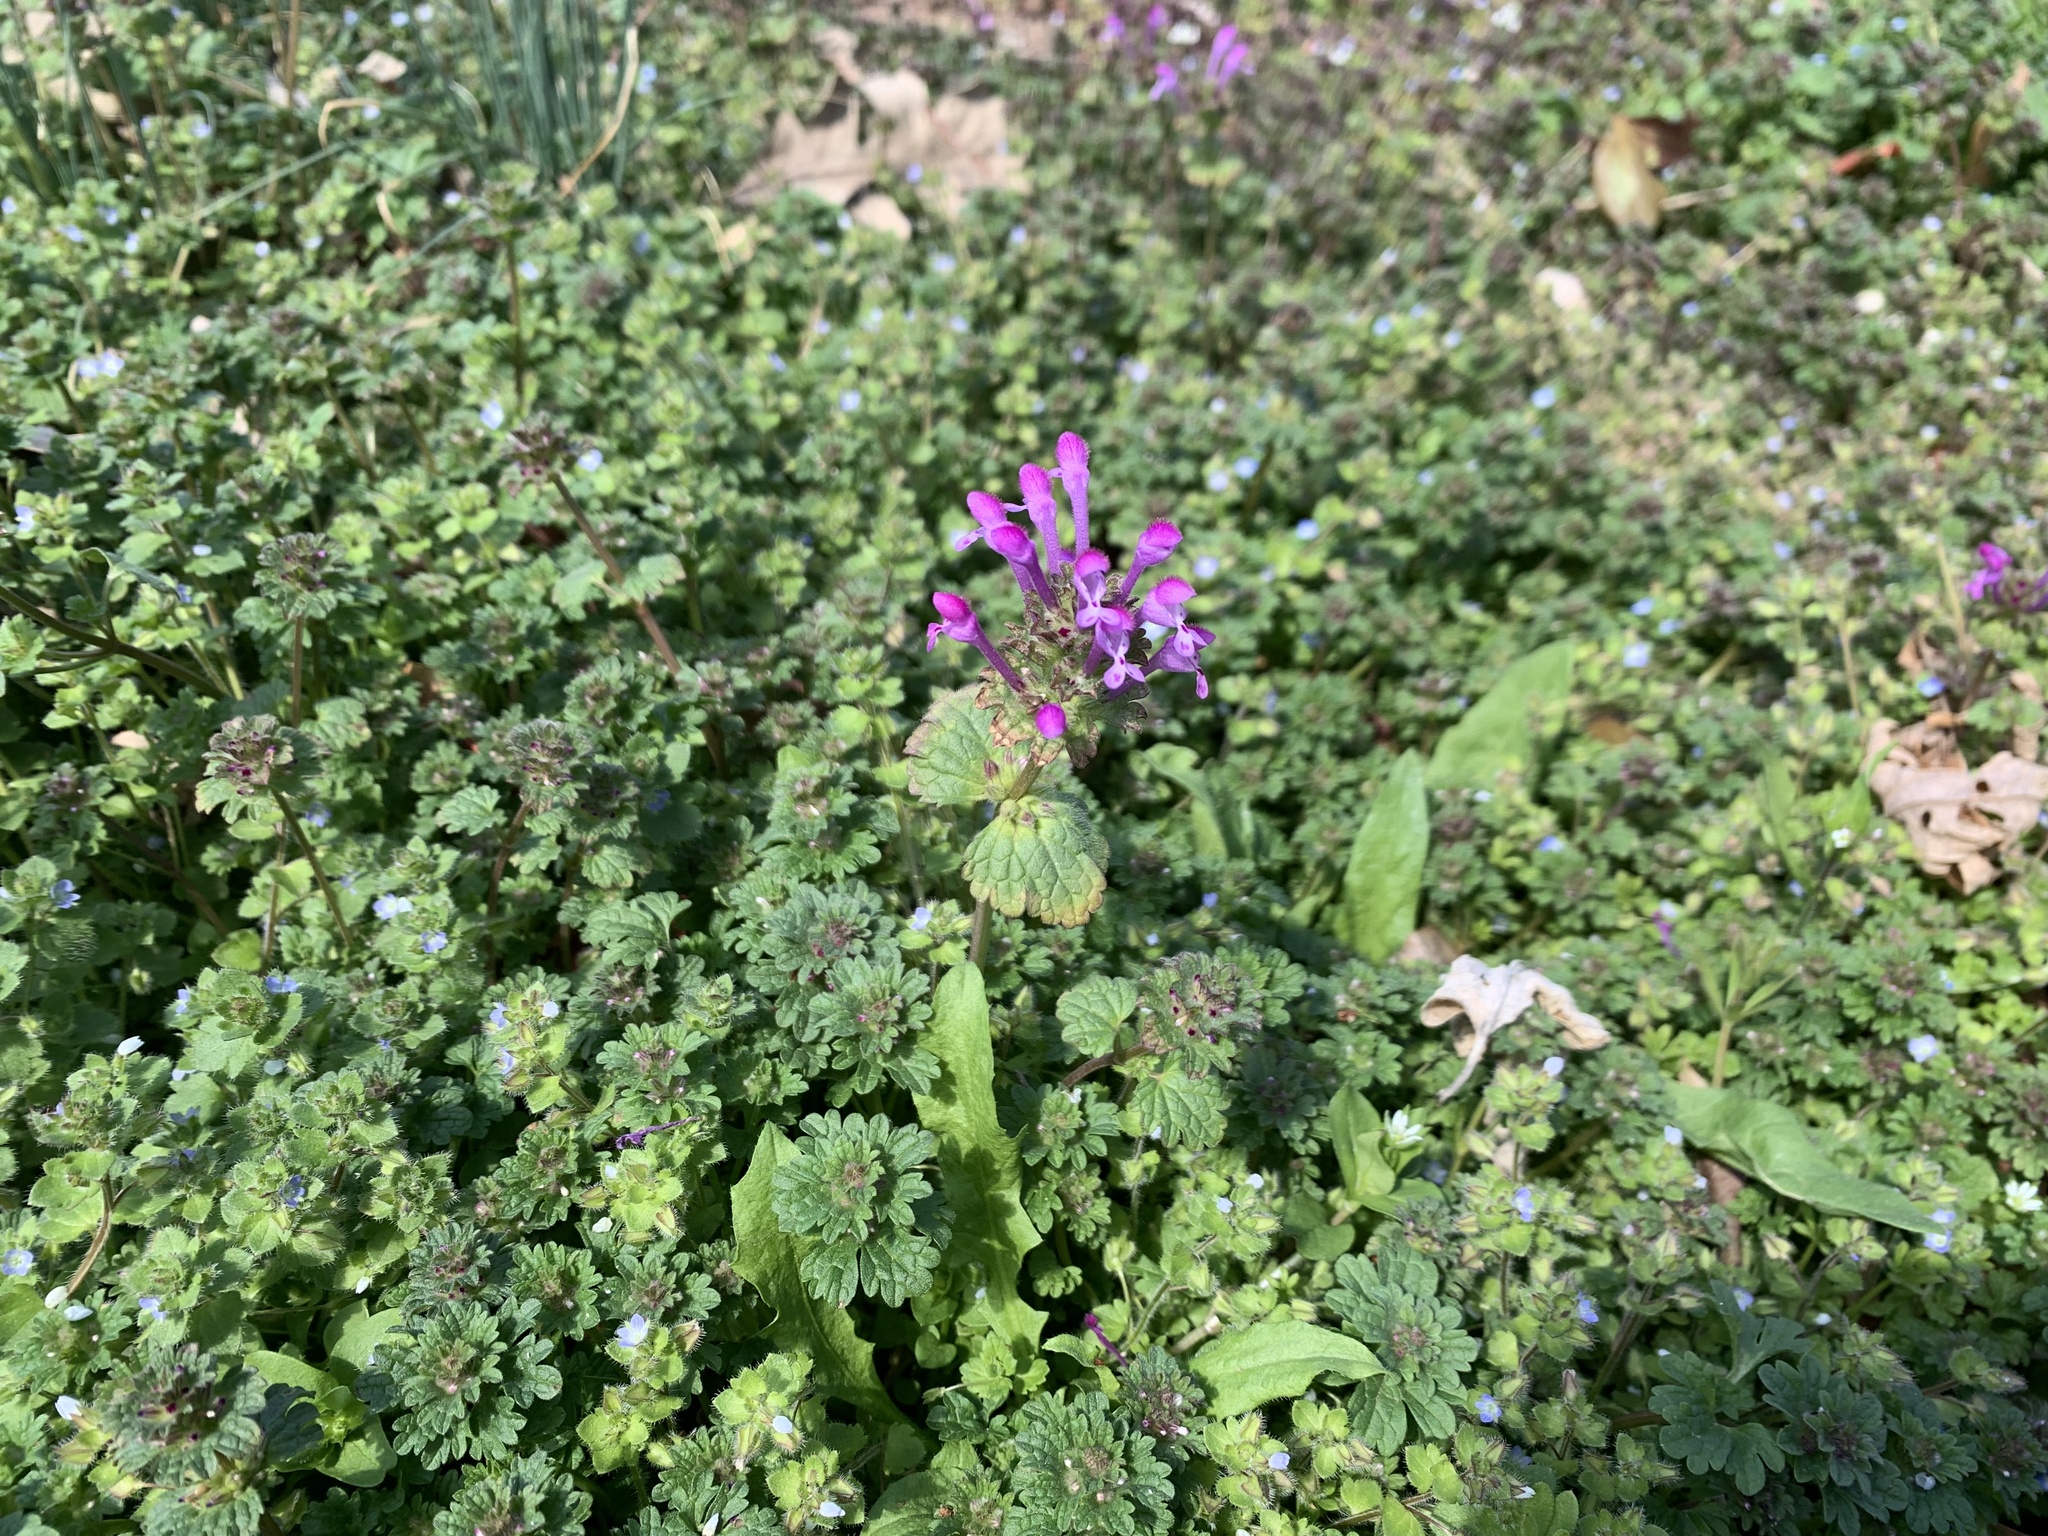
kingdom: Plantae
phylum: Tracheophyta
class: Magnoliopsida
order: Lamiales
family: Lamiaceae
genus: Lamium
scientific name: Lamium amplexicaule
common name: Henbit dead-nettle
